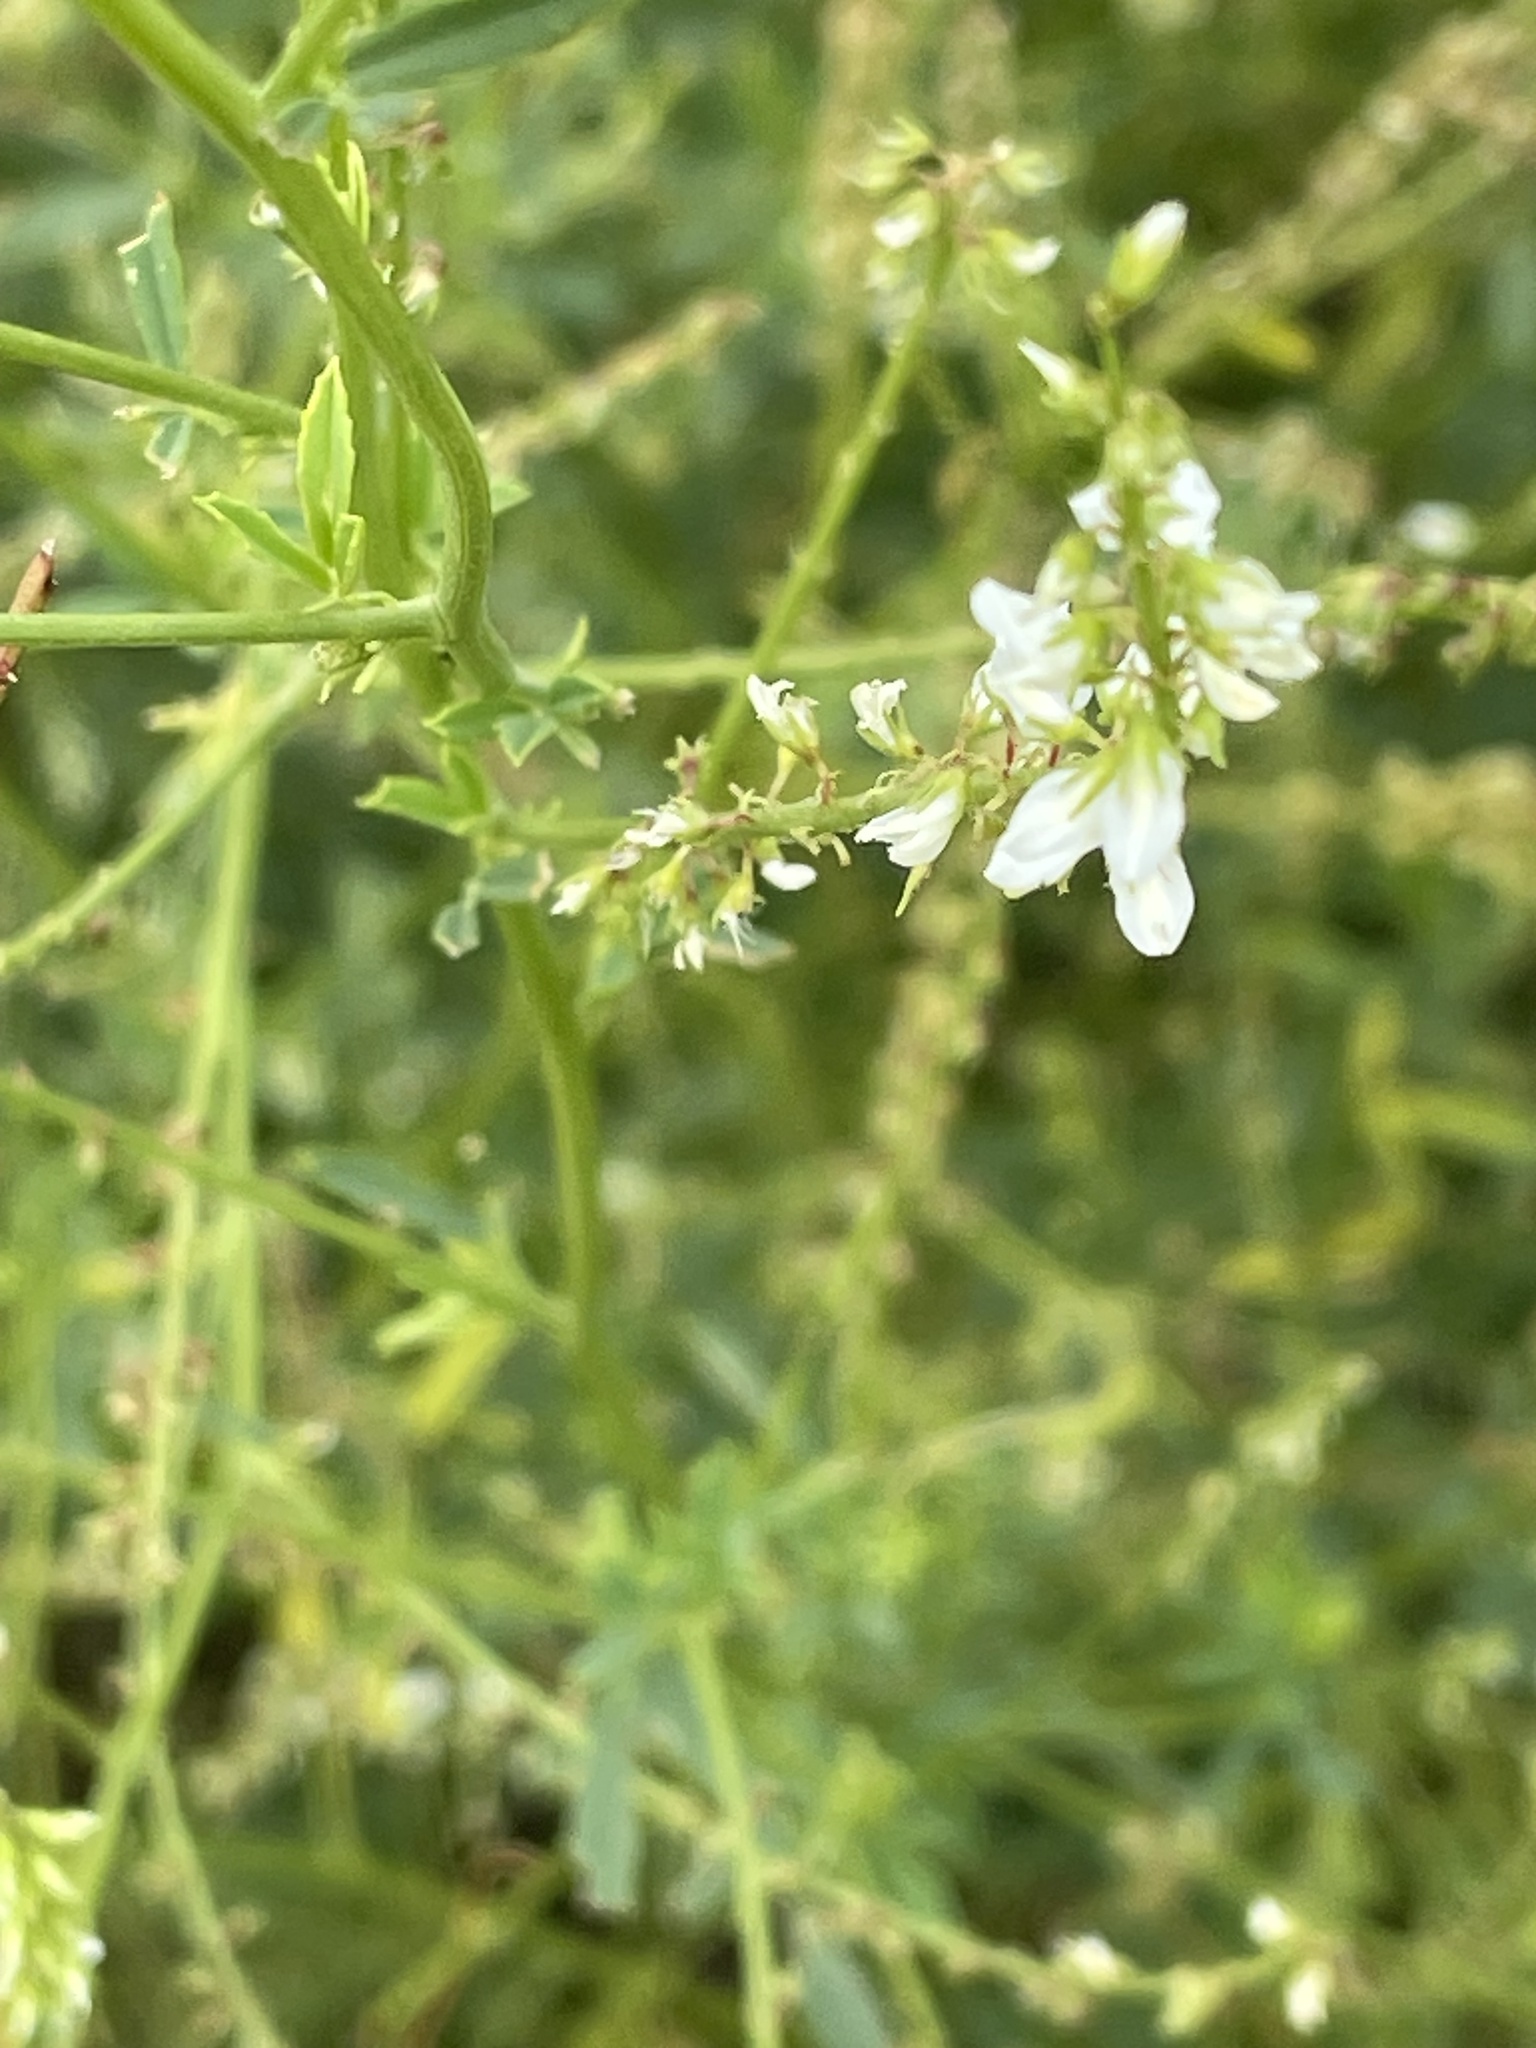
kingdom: Plantae
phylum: Tracheophyta
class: Magnoliopsida
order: Fabales
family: Fabaceae
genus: Melilotus
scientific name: Melilotus albus
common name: White melilot
